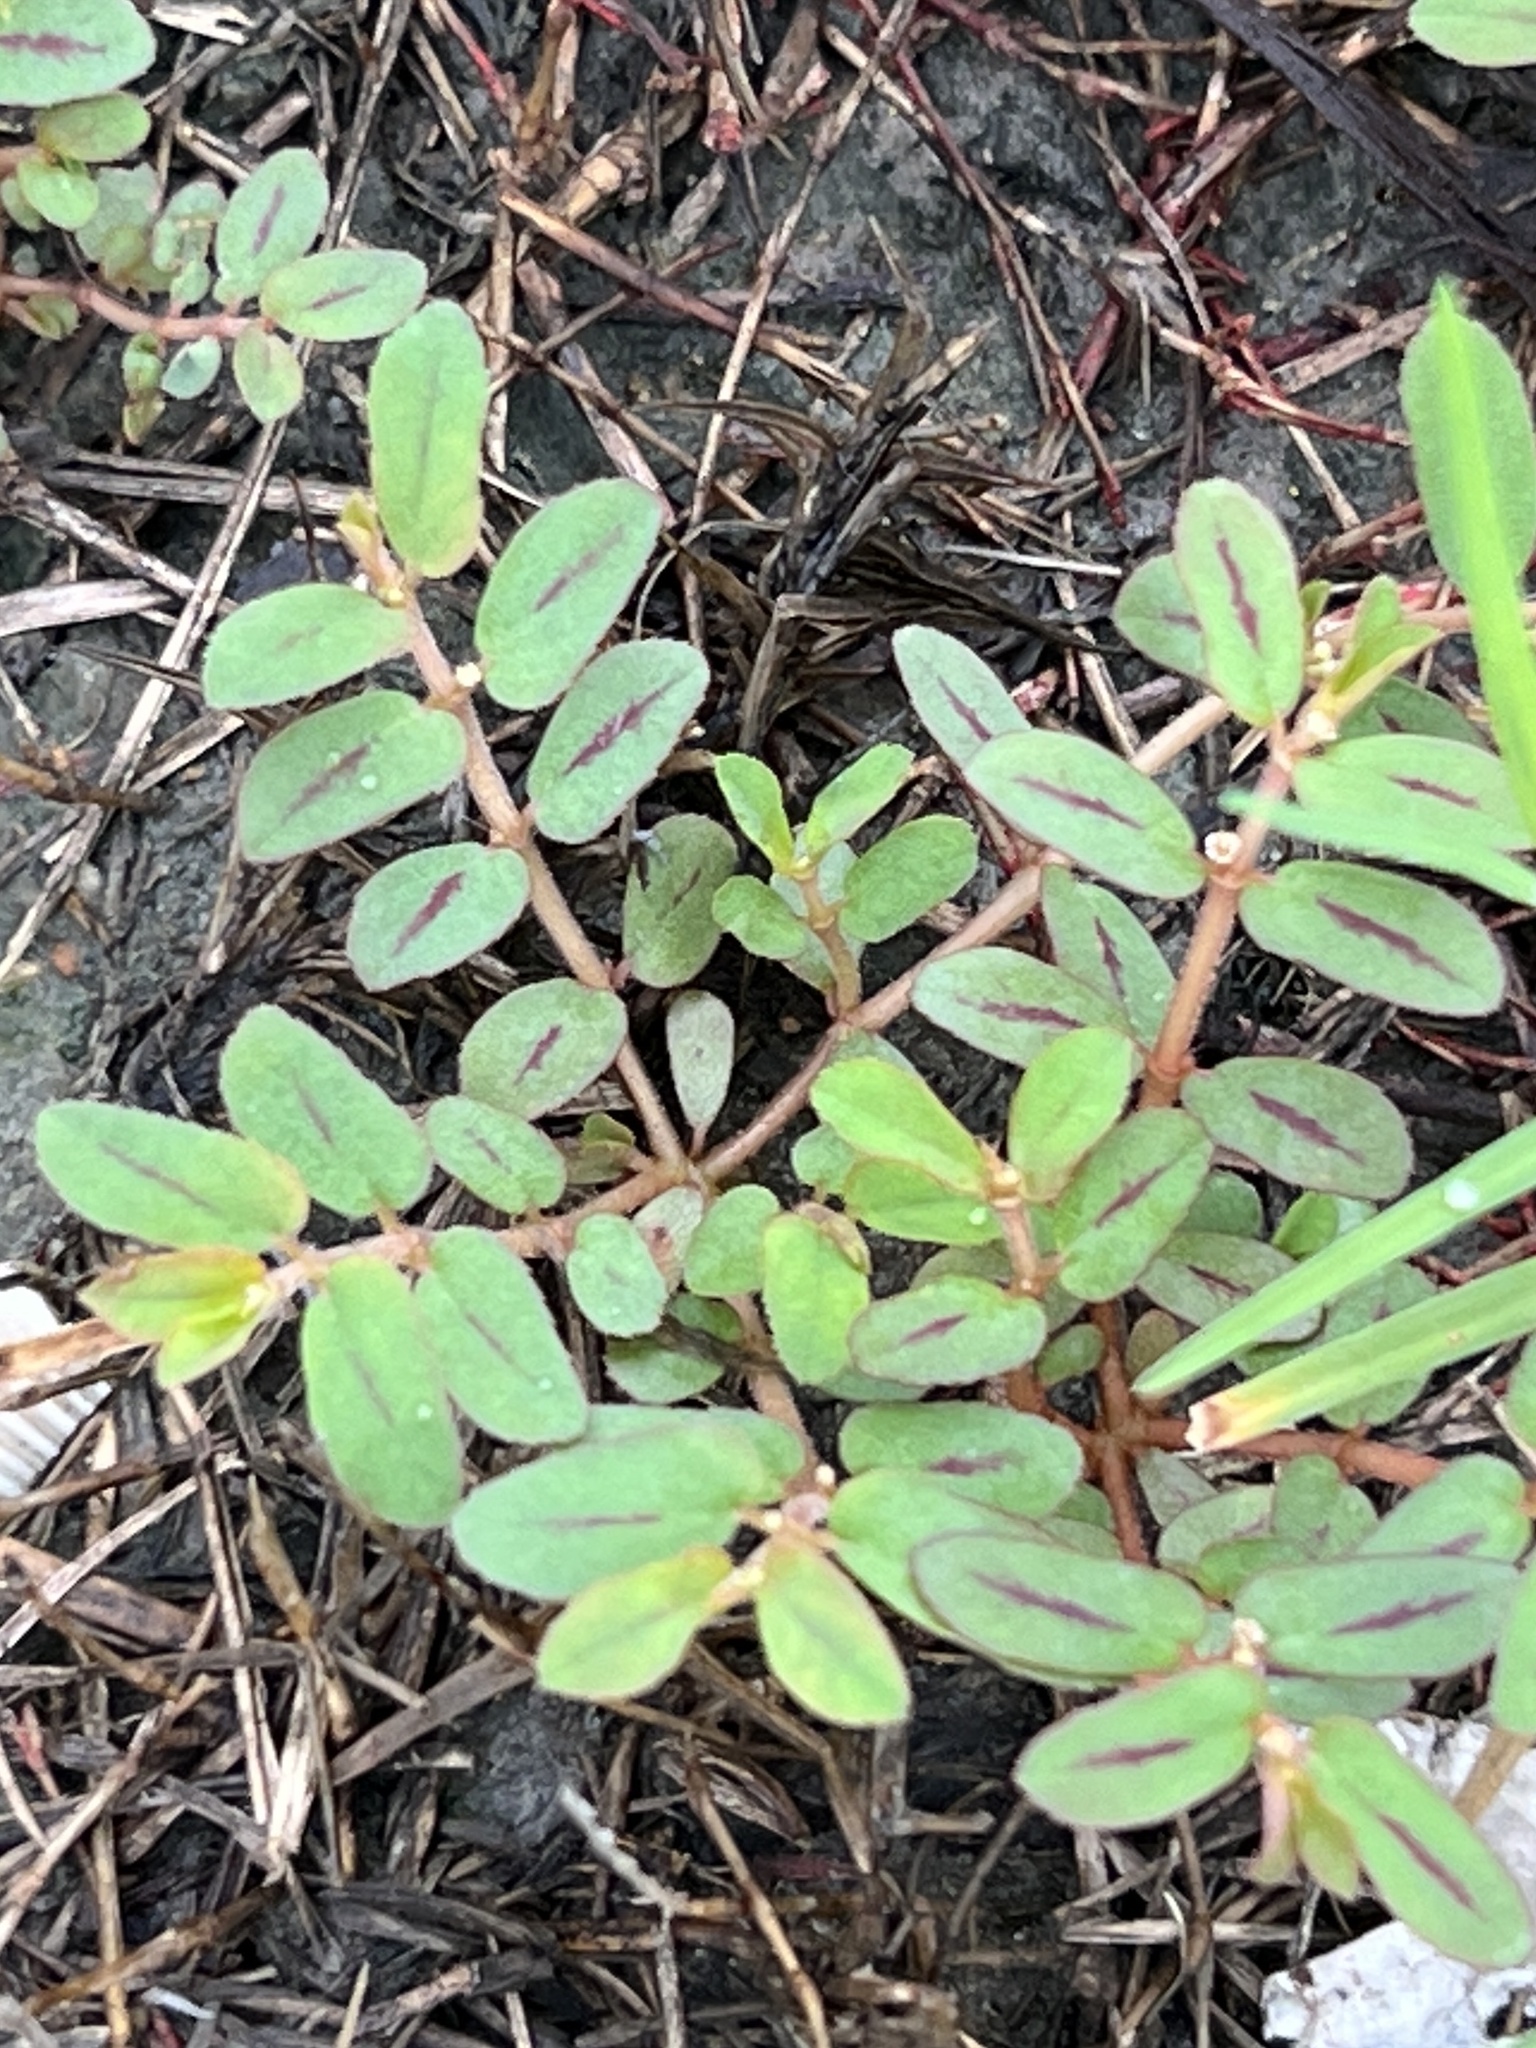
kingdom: Plantae
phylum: Tracheophyta
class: Magnoliopsida
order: Malpighiales
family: Euphorbiaceae
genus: Euphorbia
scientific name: Euphorbia maculata
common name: Spotted spurge
